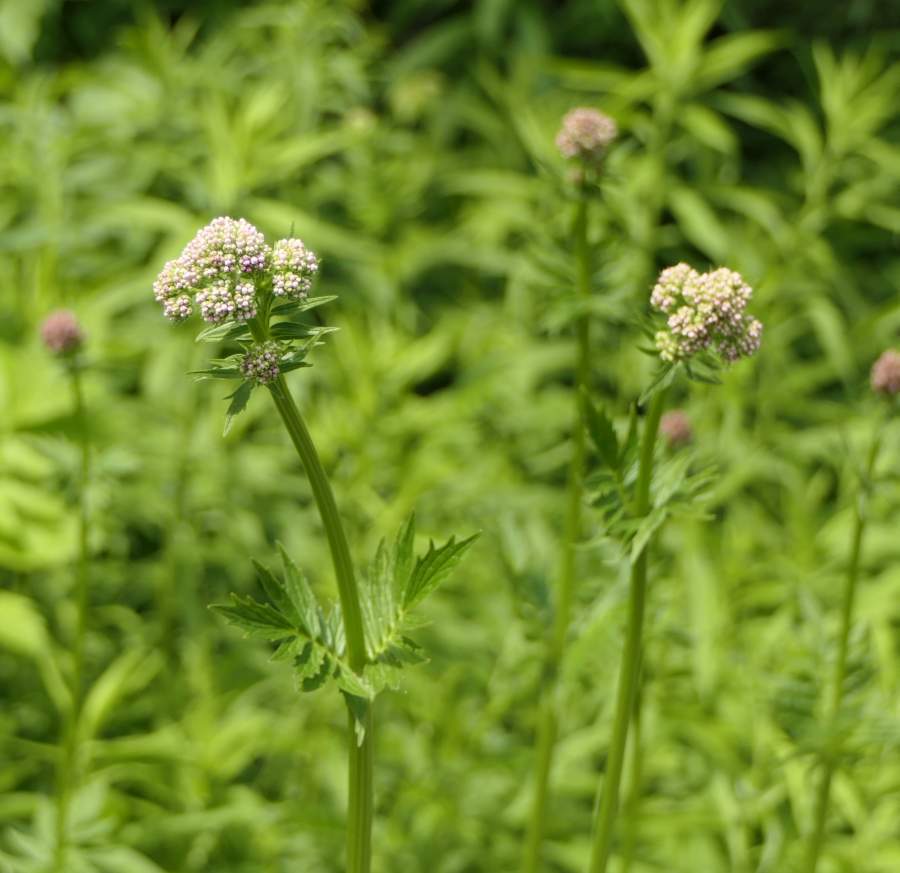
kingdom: Plantae
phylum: Tracheophyta
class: Magnoliopsida
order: Dipsacales
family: Caprifoliaceae
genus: Valeriana
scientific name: Valeriana officinalis
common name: Common valerian
